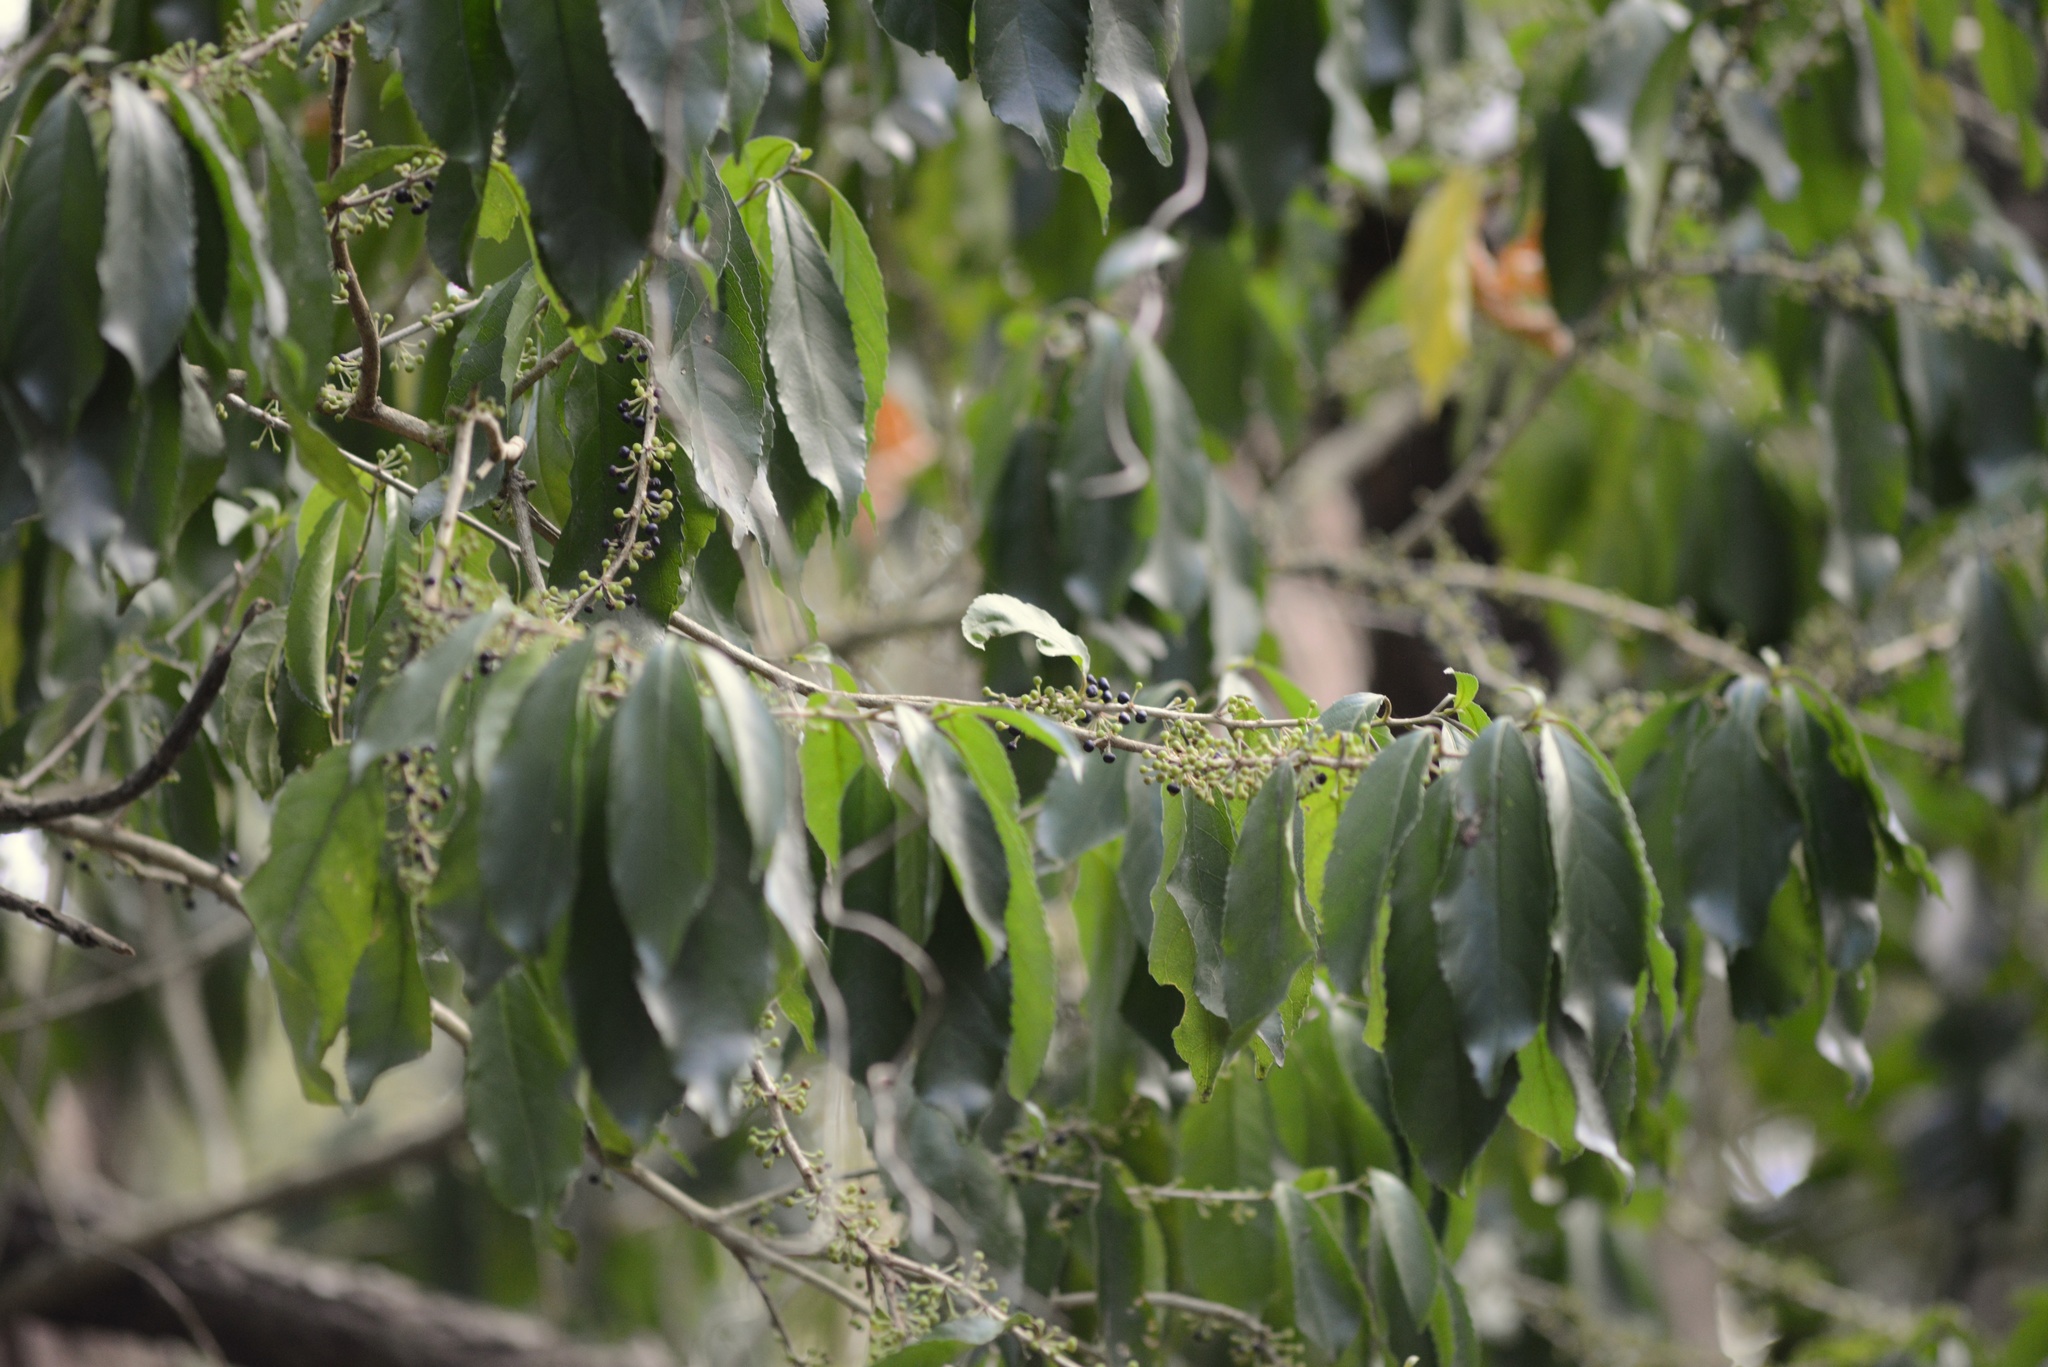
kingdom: Plantae
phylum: Tracheophyta
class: Magnoliopsida
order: Malpighiales
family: Violaceae
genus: Melicytus
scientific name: Melicytus ramiflorus
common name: Mahoe
